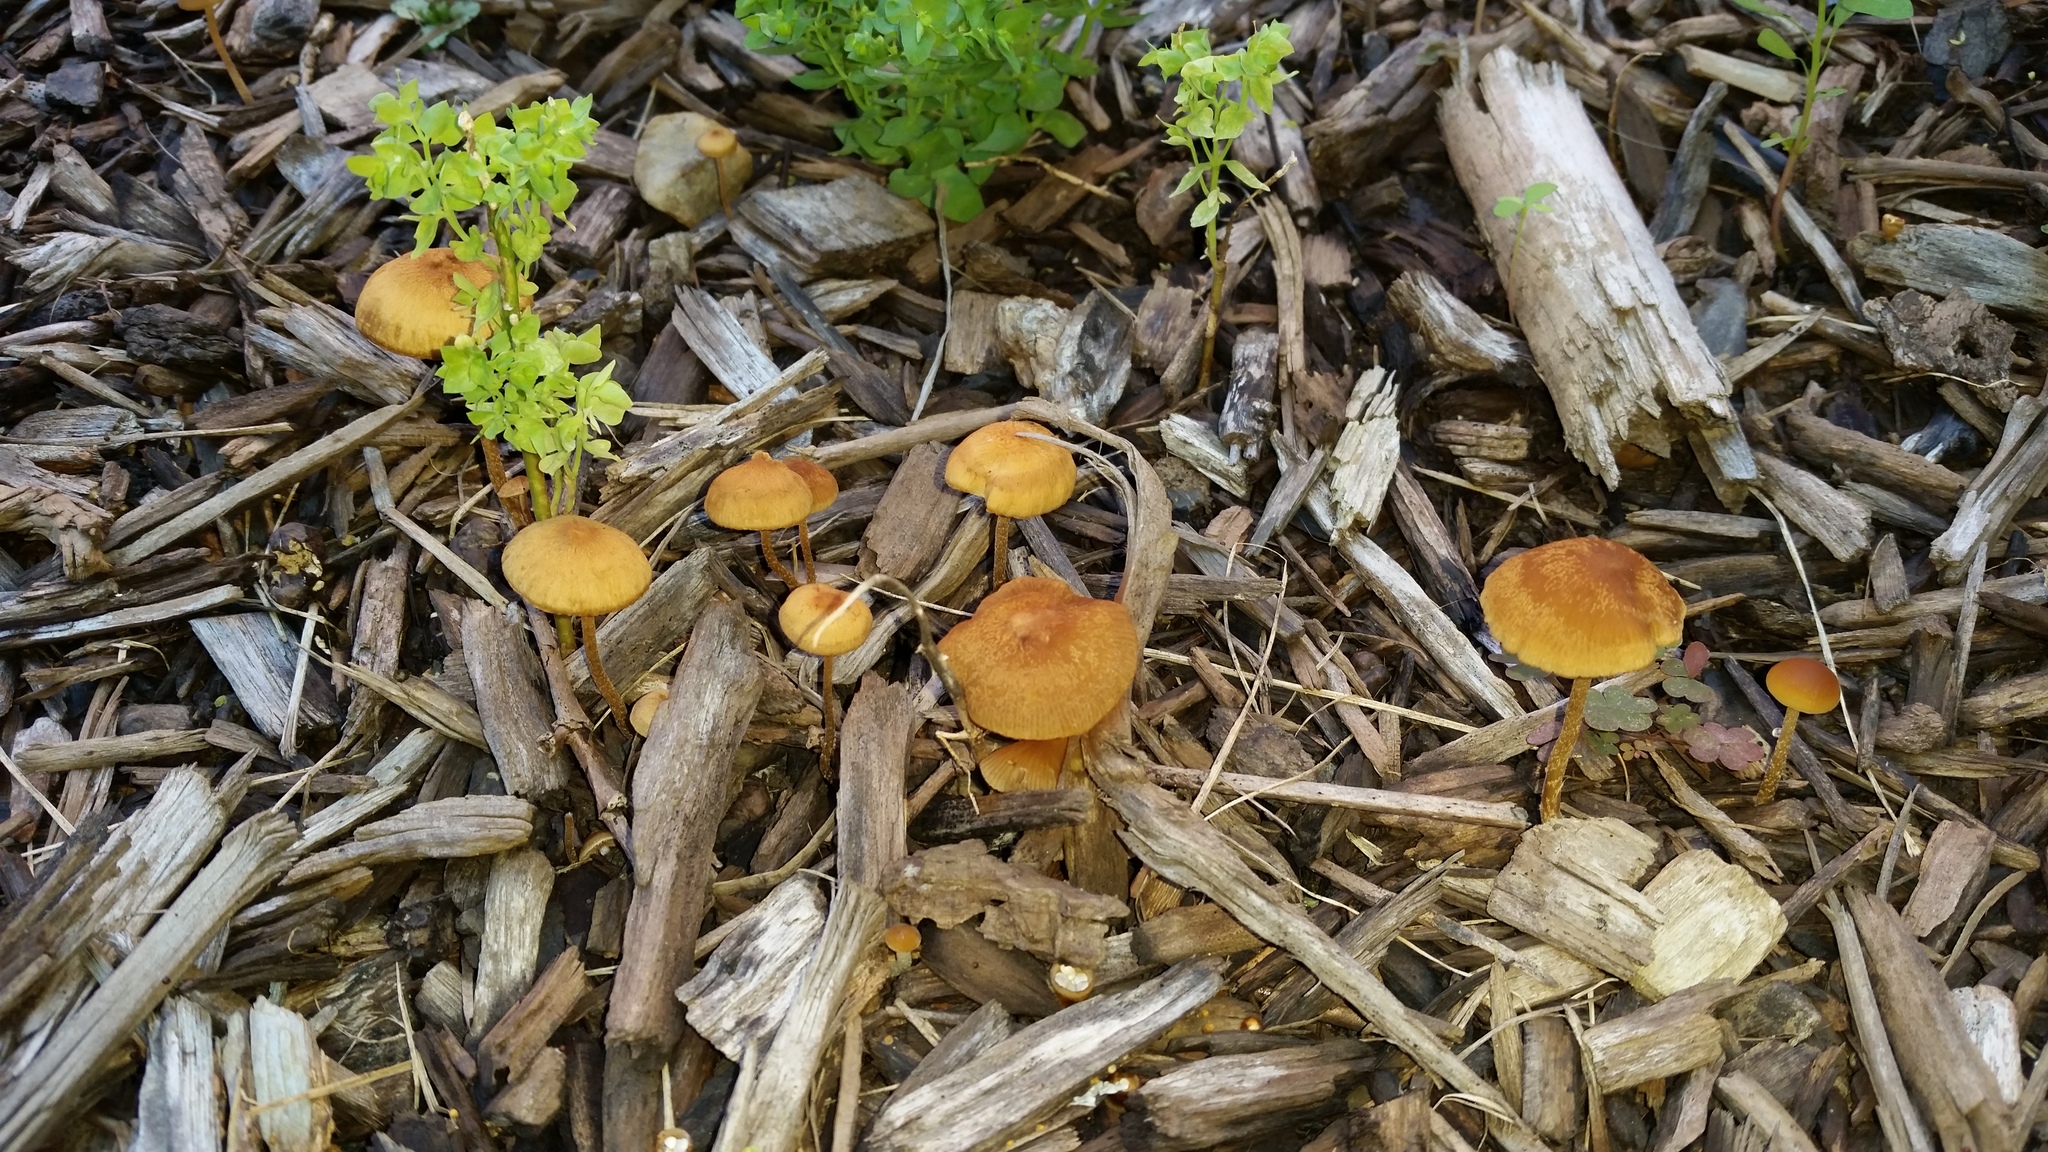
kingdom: Fungi
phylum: Basidiomycota
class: Agaricomycetes
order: Agaricales
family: Strophariaceae
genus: Agrocybe
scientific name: Agrocybe arvalis
